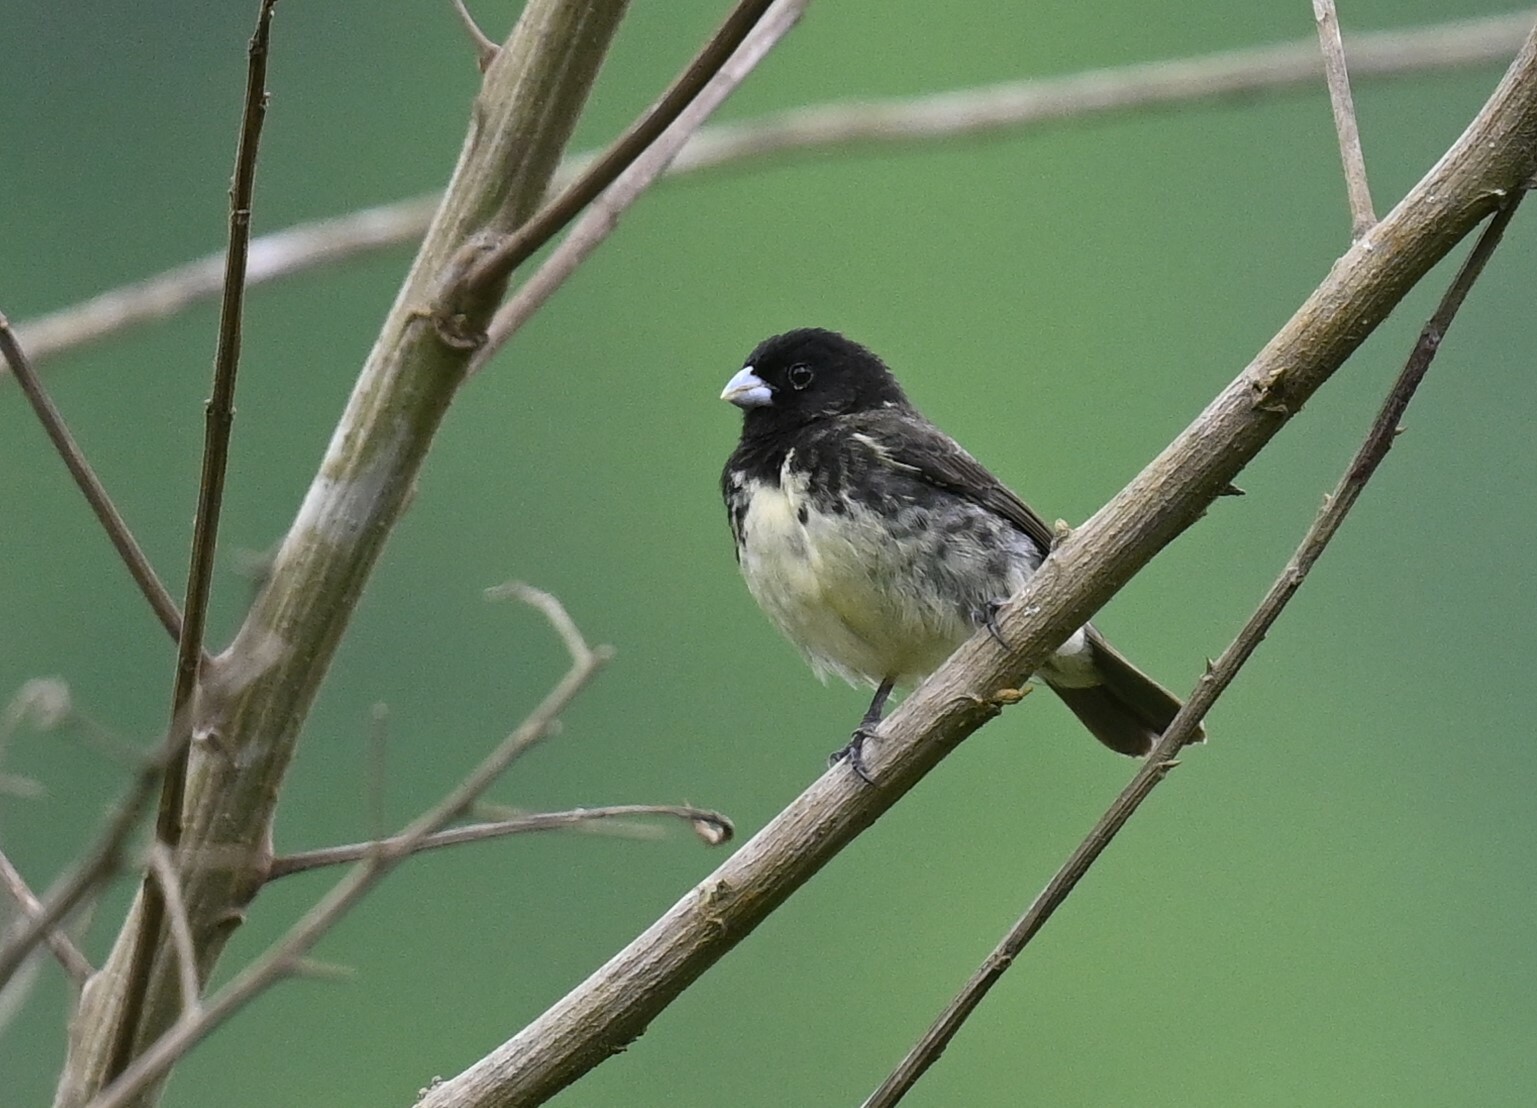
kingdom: Animalia
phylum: Chordata
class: Aves
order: Passeriformes
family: Thraupidae
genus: Sporophila
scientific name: Sporophila nigricollis
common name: Yellow-bellied seedeater
